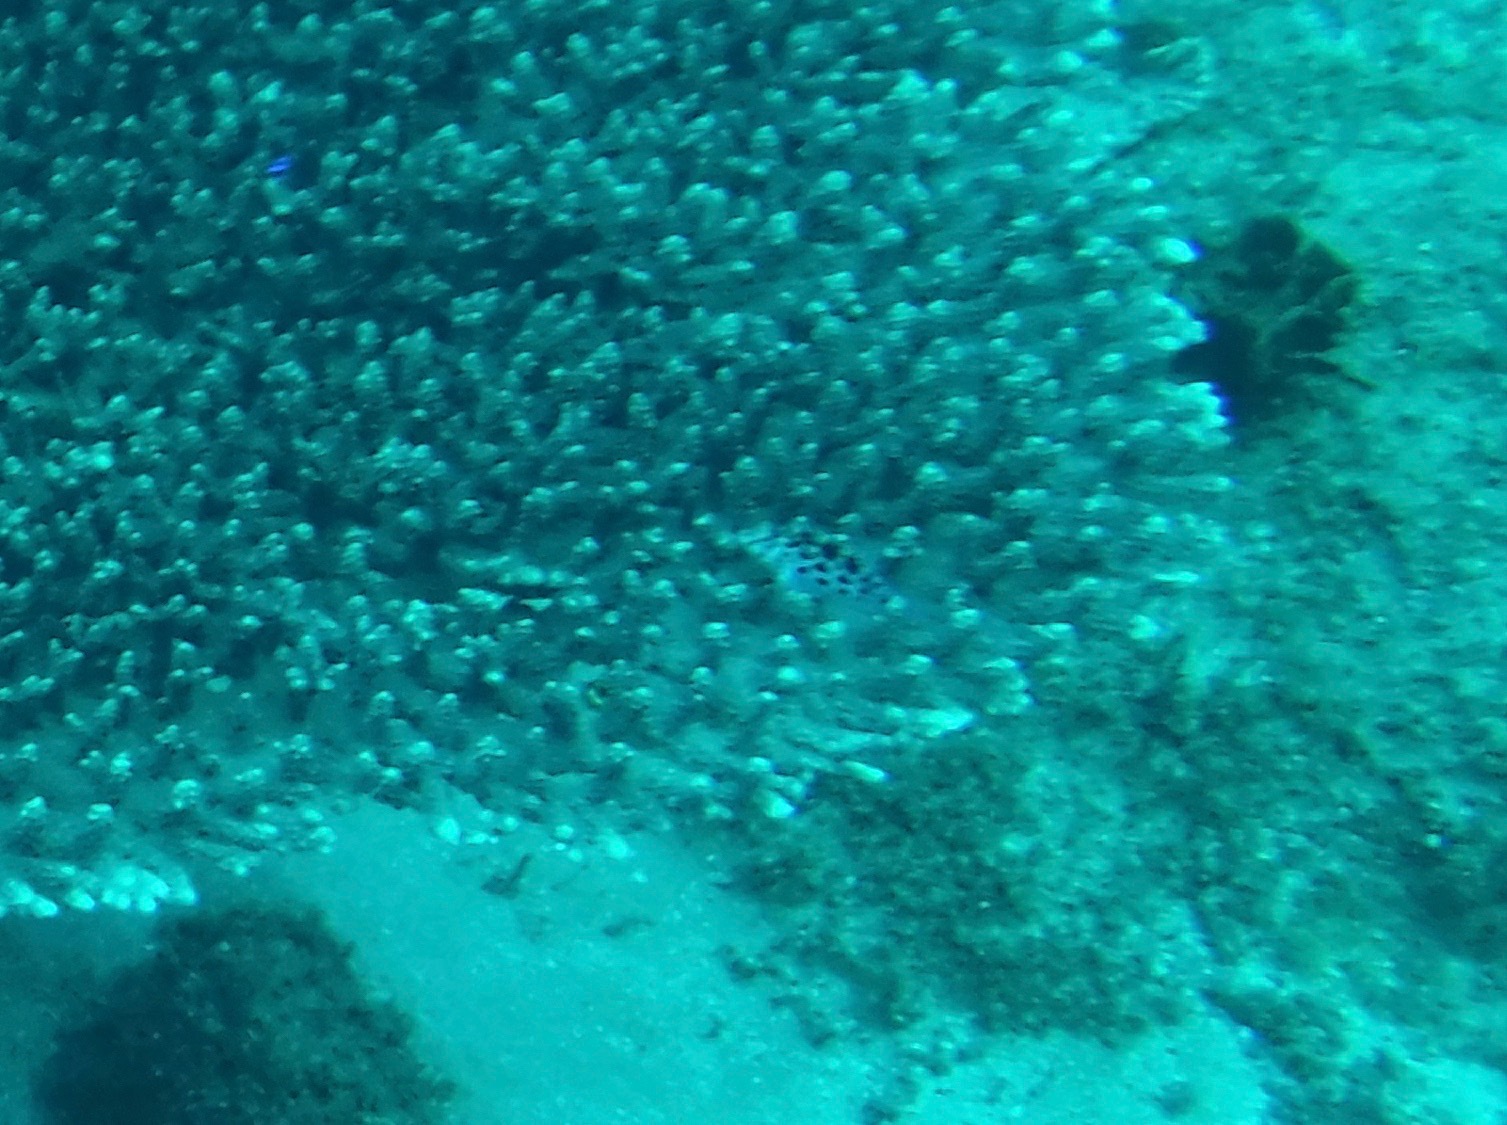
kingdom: Animalia
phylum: Chordata
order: Perciformes
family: Cirrhitidae
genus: Cirrhitichthys
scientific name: Cirrhitichthys oxycephalus
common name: Spotted hawkfish
